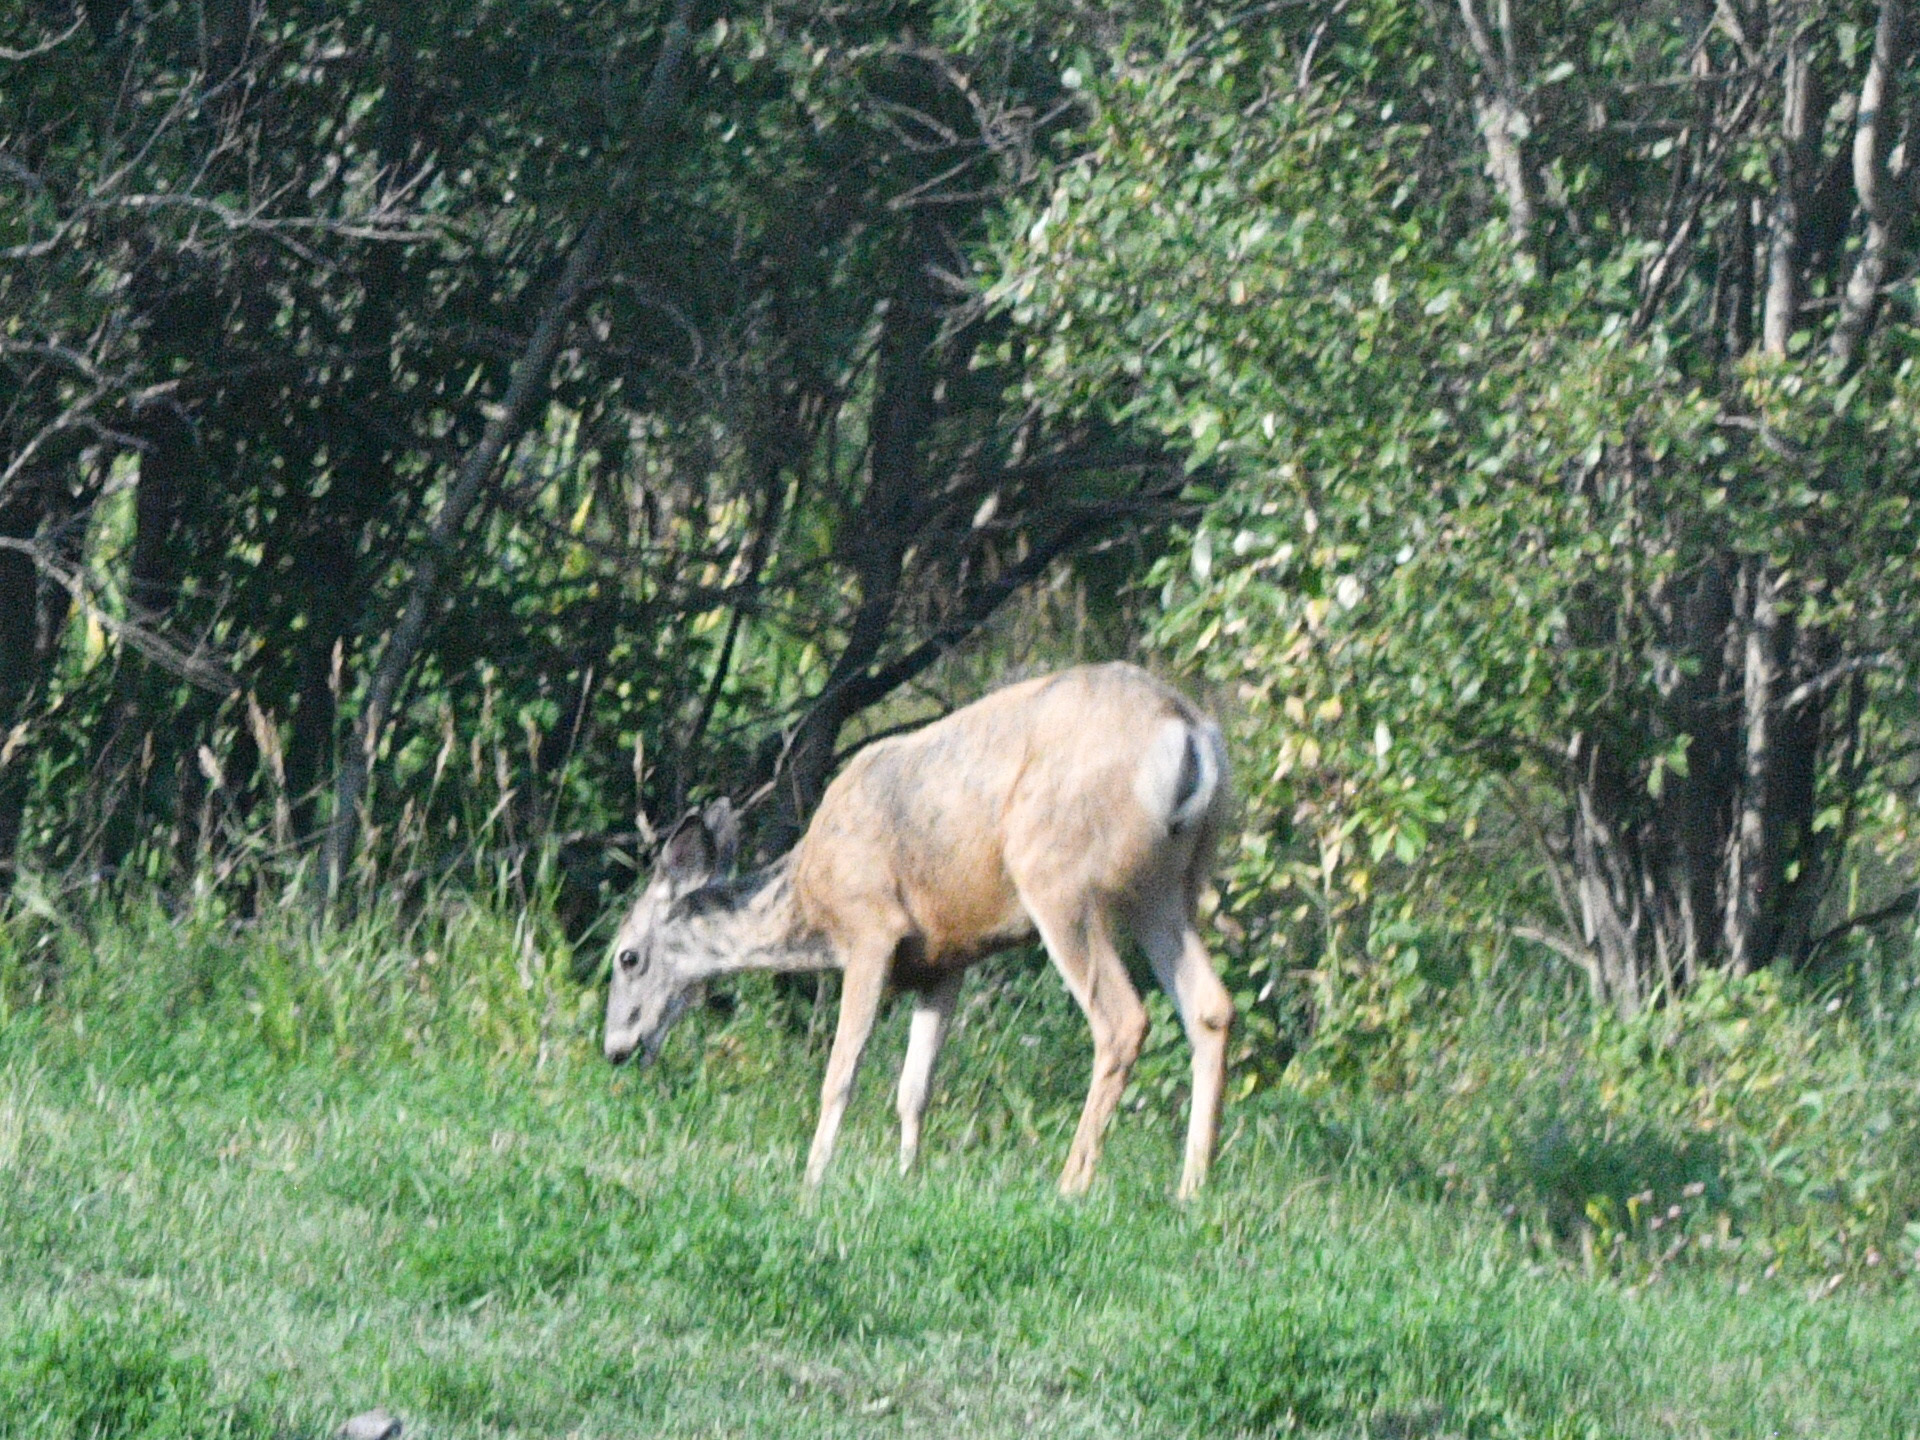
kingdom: Animalia
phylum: Chordata
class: Mammalia
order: Artiodactyla
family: Cervidae
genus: Odocoileus
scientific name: Odocoileus hemionus
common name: Mule deer
